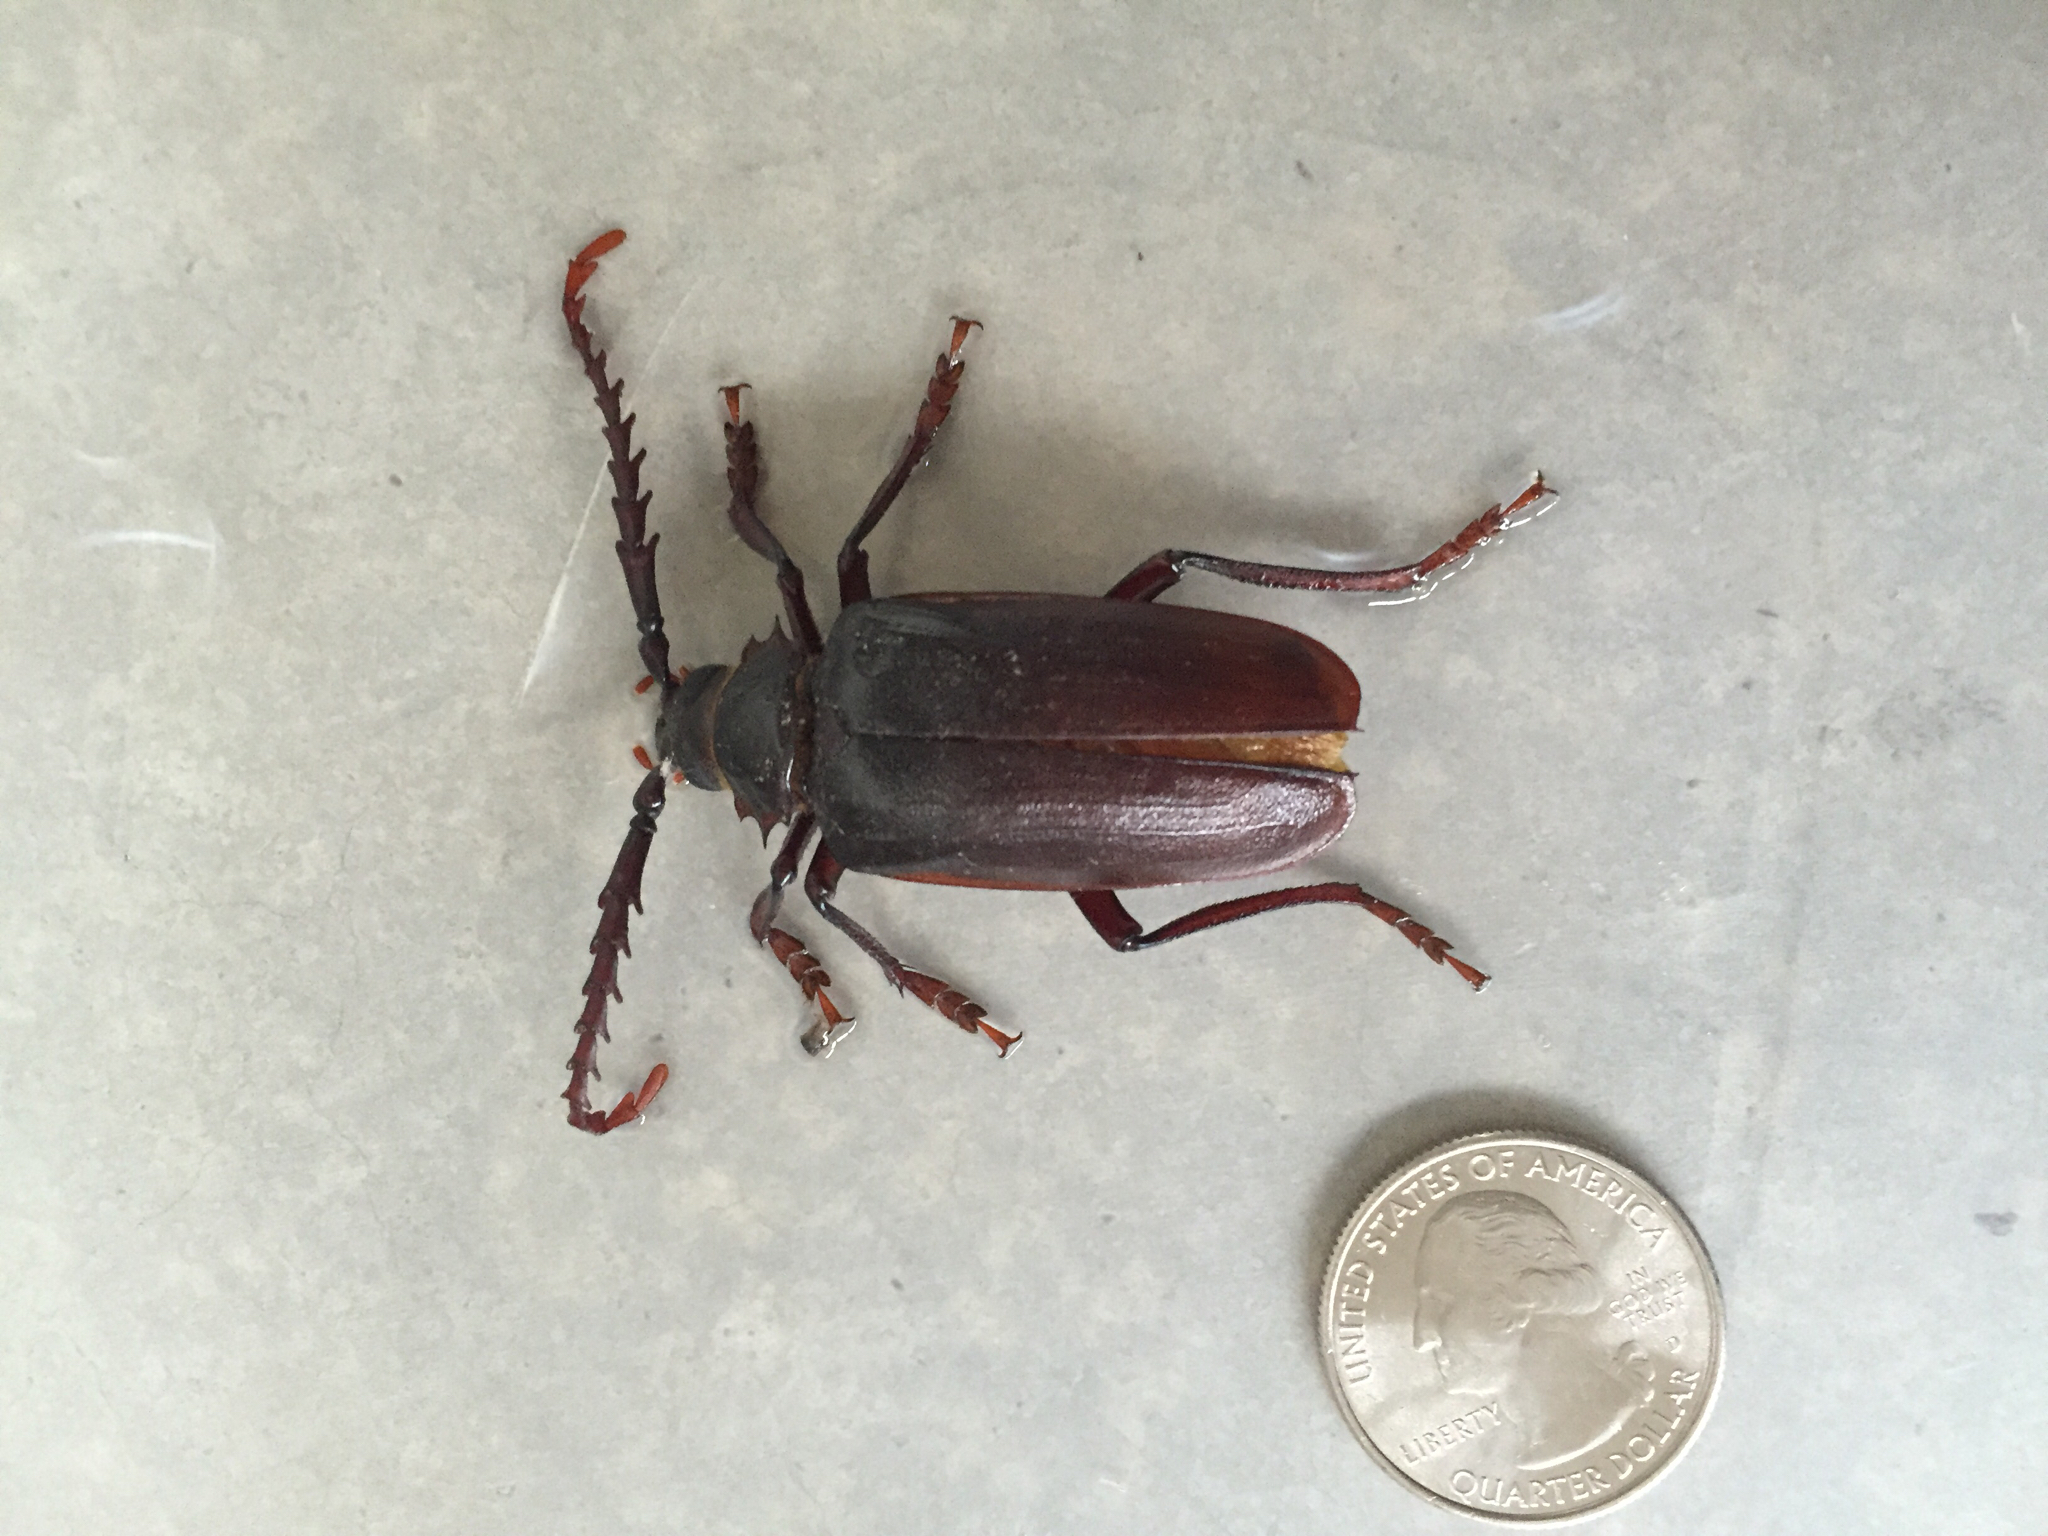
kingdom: Animalia
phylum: Arthropoda
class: Insecta
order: Coleoptera
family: Cerambycidae
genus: Prionus
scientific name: Prionus californicus
